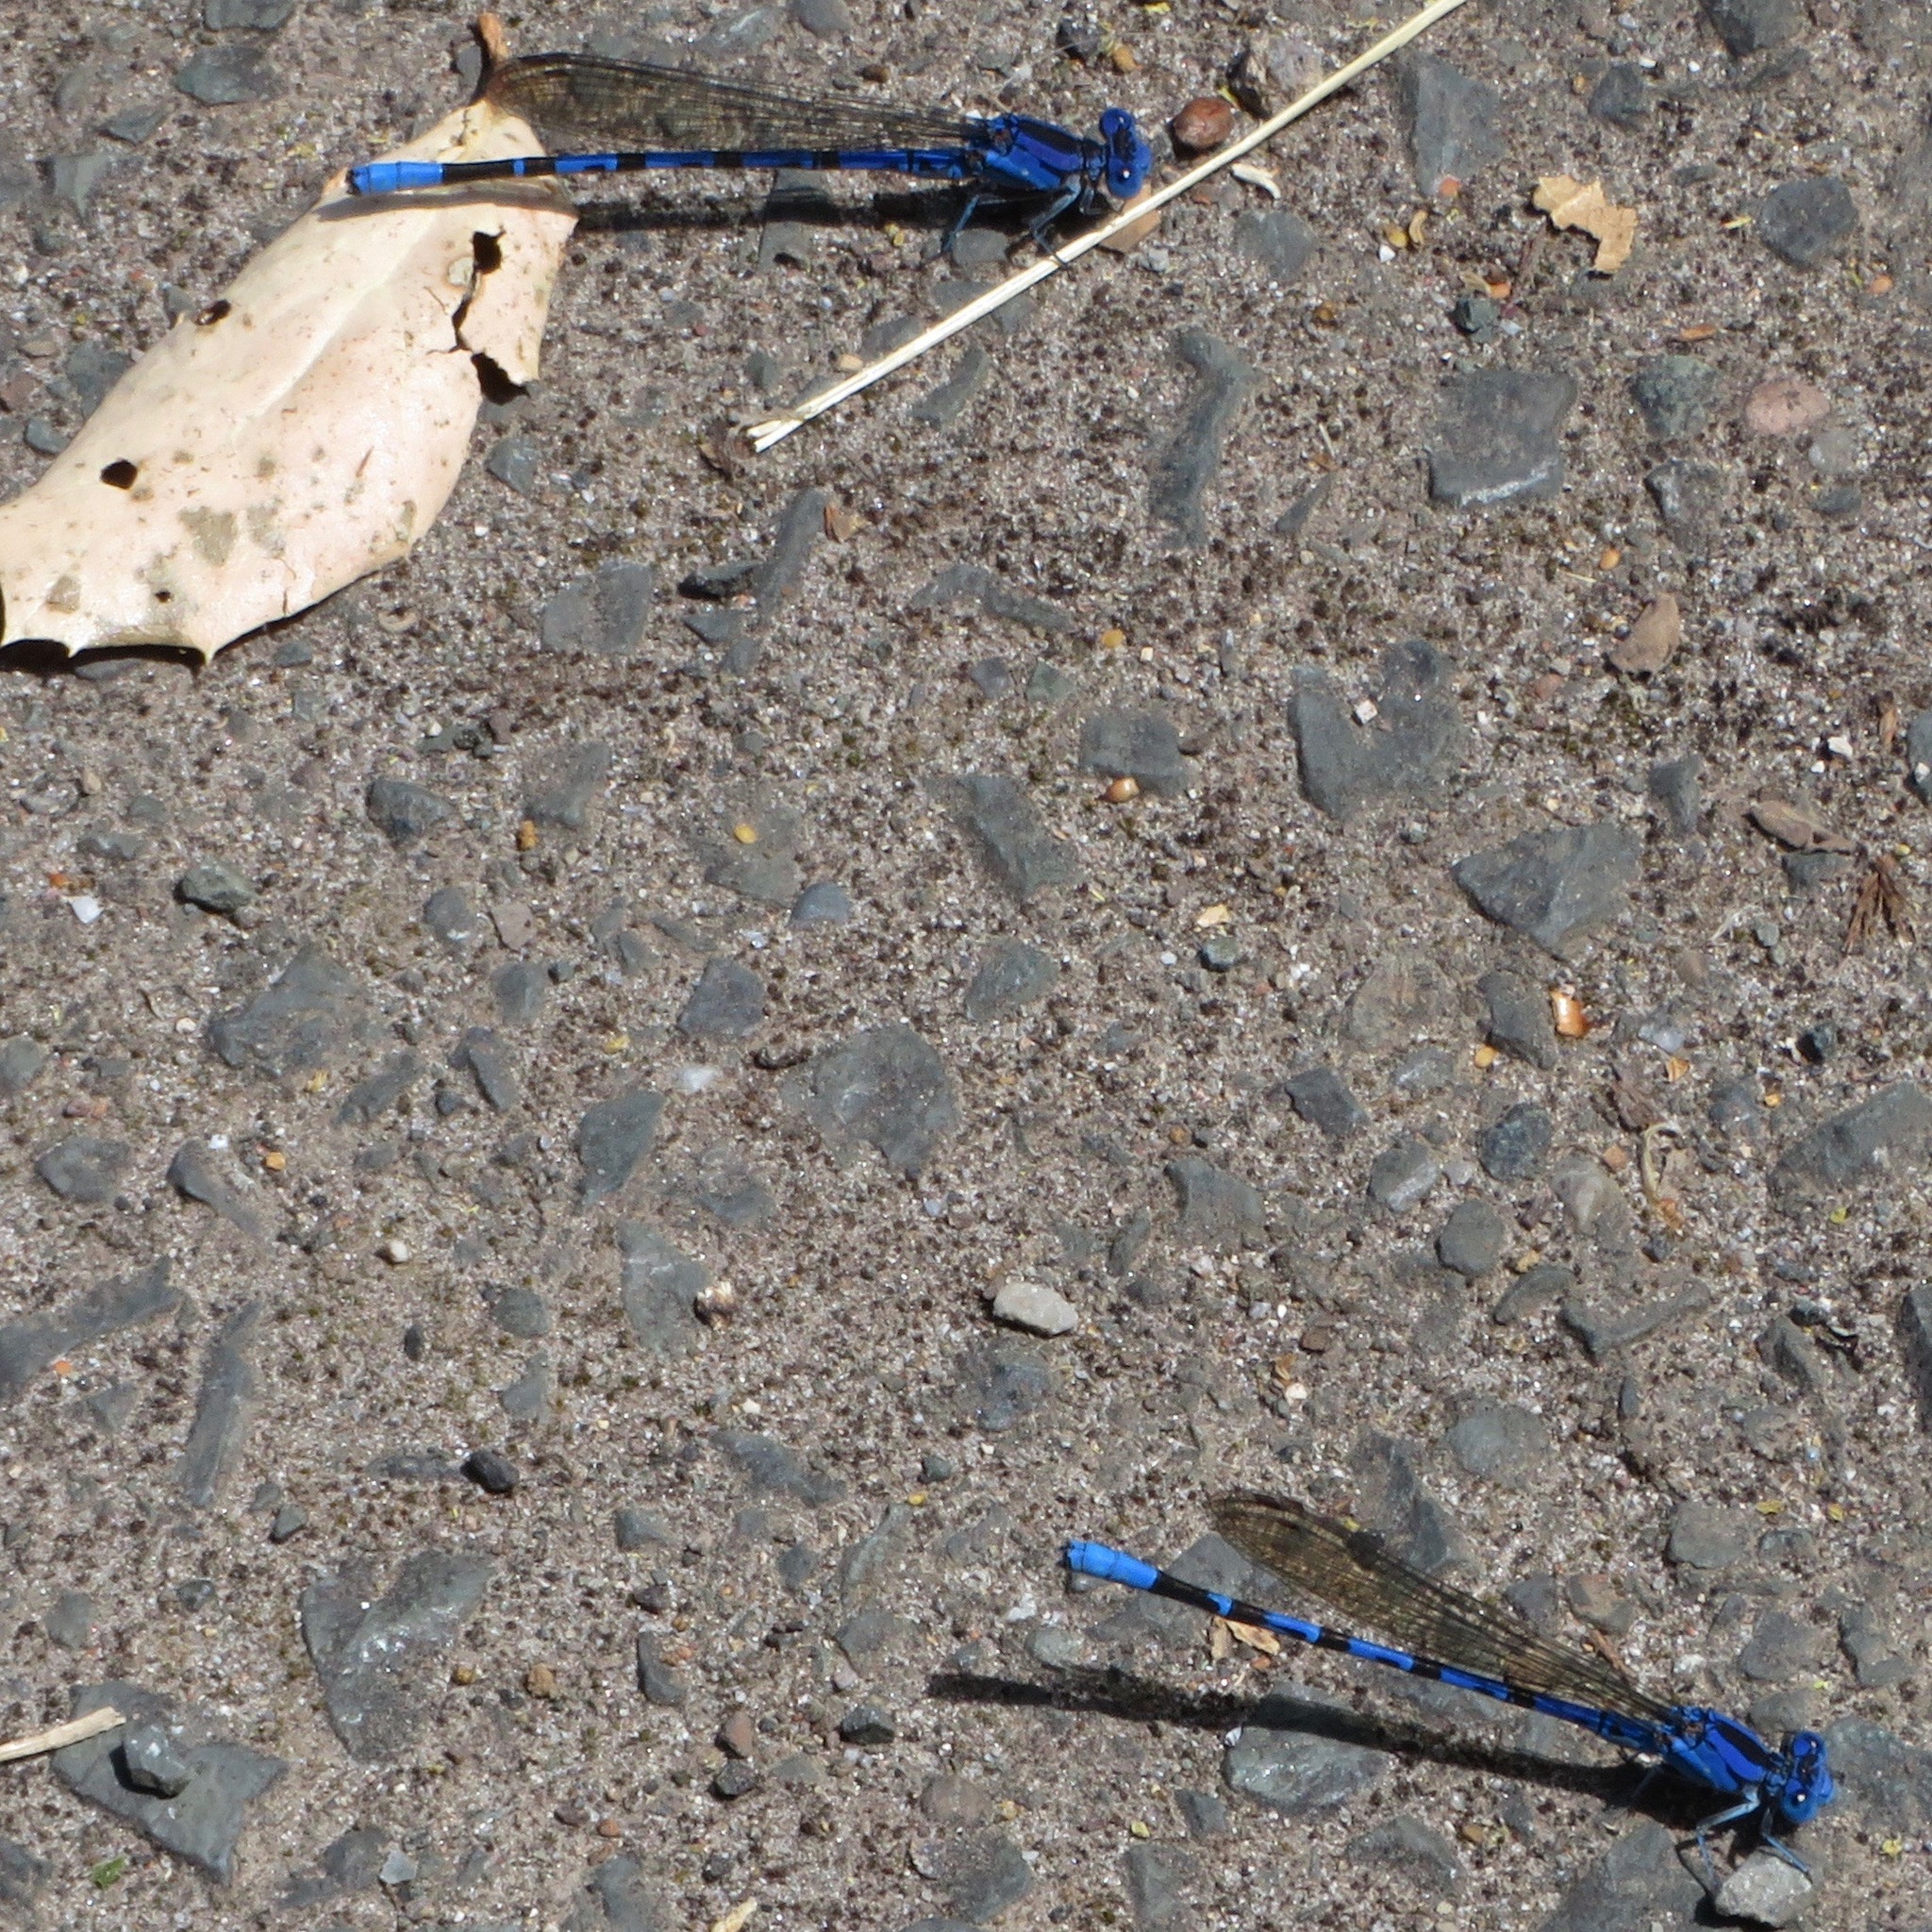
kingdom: Animalia
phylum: Arthropoda
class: Insecta
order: Odonata
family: Coenagrionidae
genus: Argia
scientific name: Argia vivida
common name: Vivid dancer
